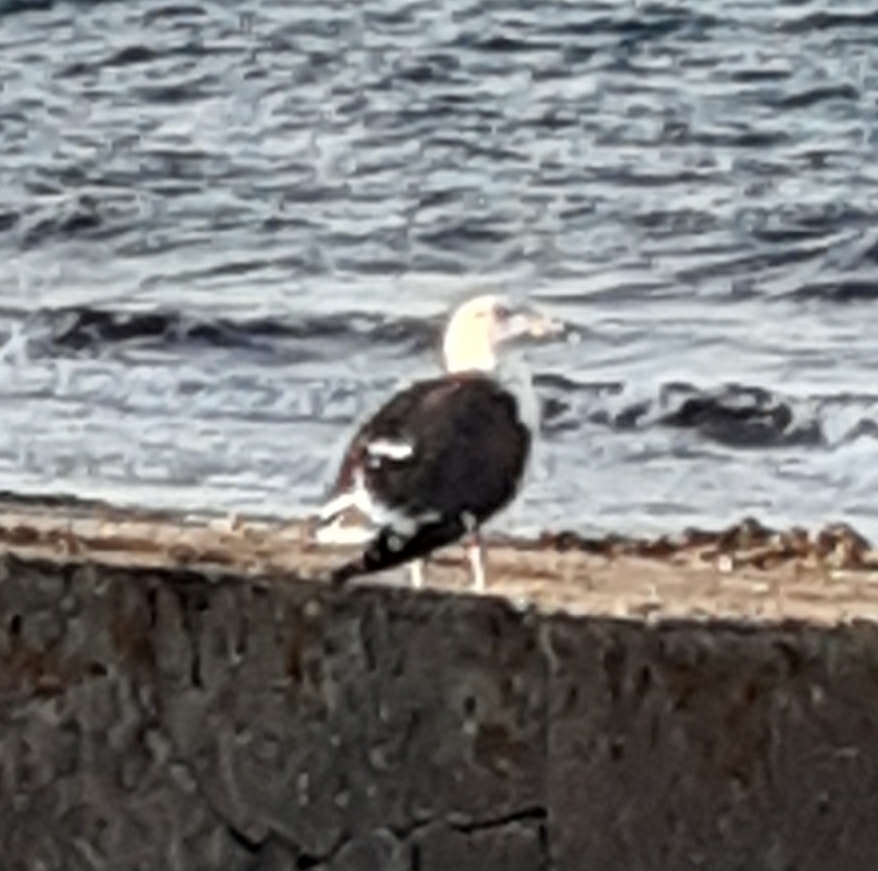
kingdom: Animalia
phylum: Chordata
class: Aves
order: Charadriiformes
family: Laridae
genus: Larus
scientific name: Larus marinus
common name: Great black-backed gull
